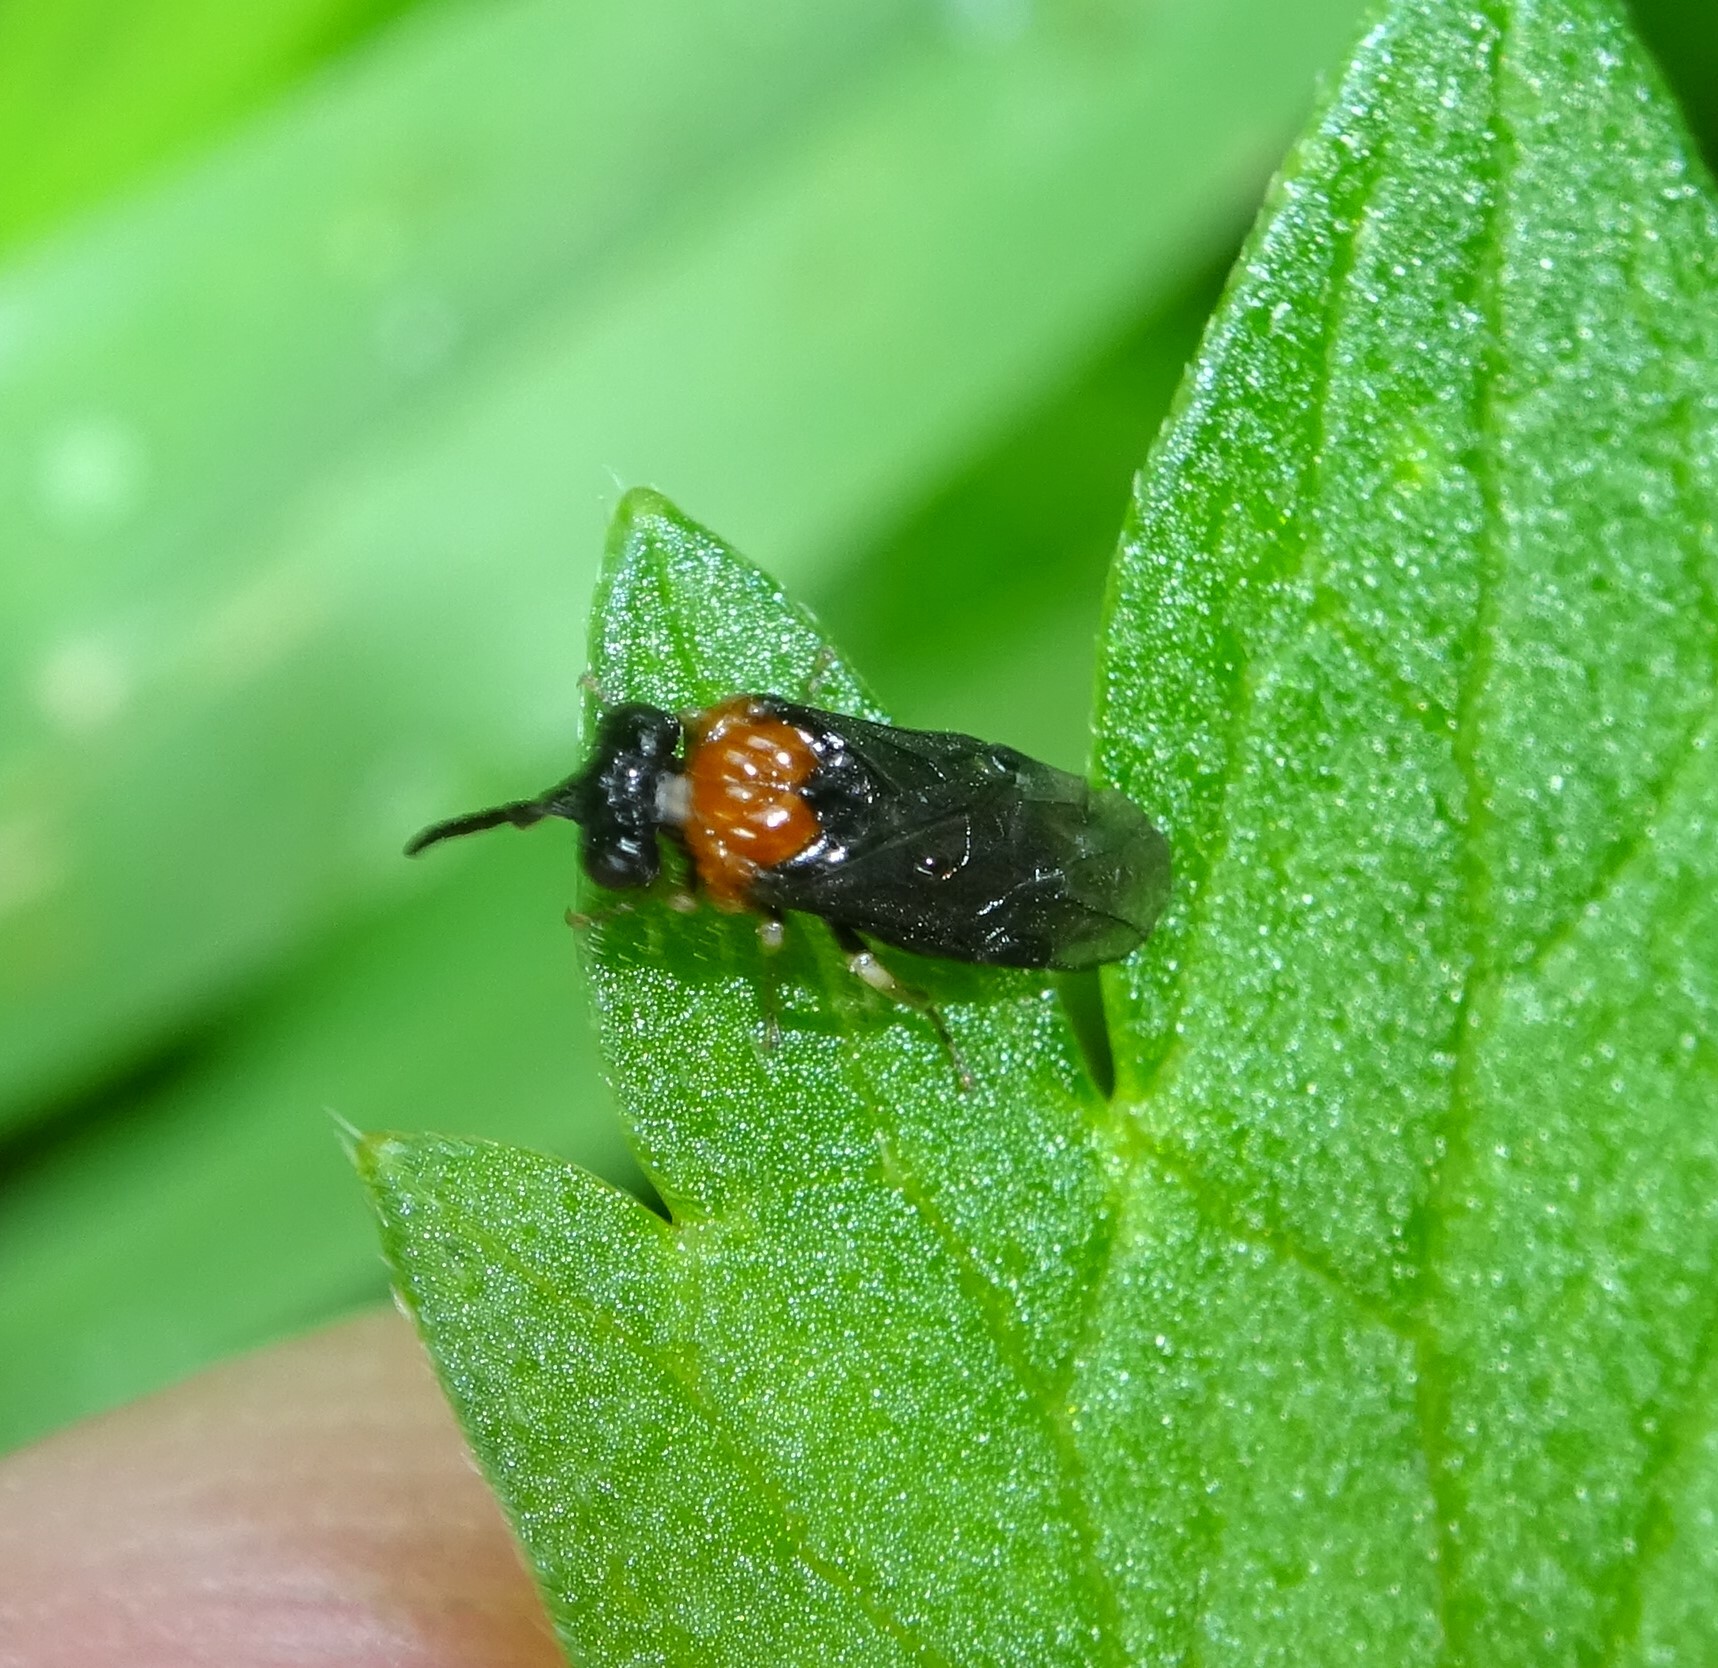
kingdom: Animalia
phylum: Arthropoda
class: Insecta
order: Hymenoptera
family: Tenthredinidae
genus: Eutomostethus
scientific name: Eutomostethus ephippium
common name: Tenthredid wasp
